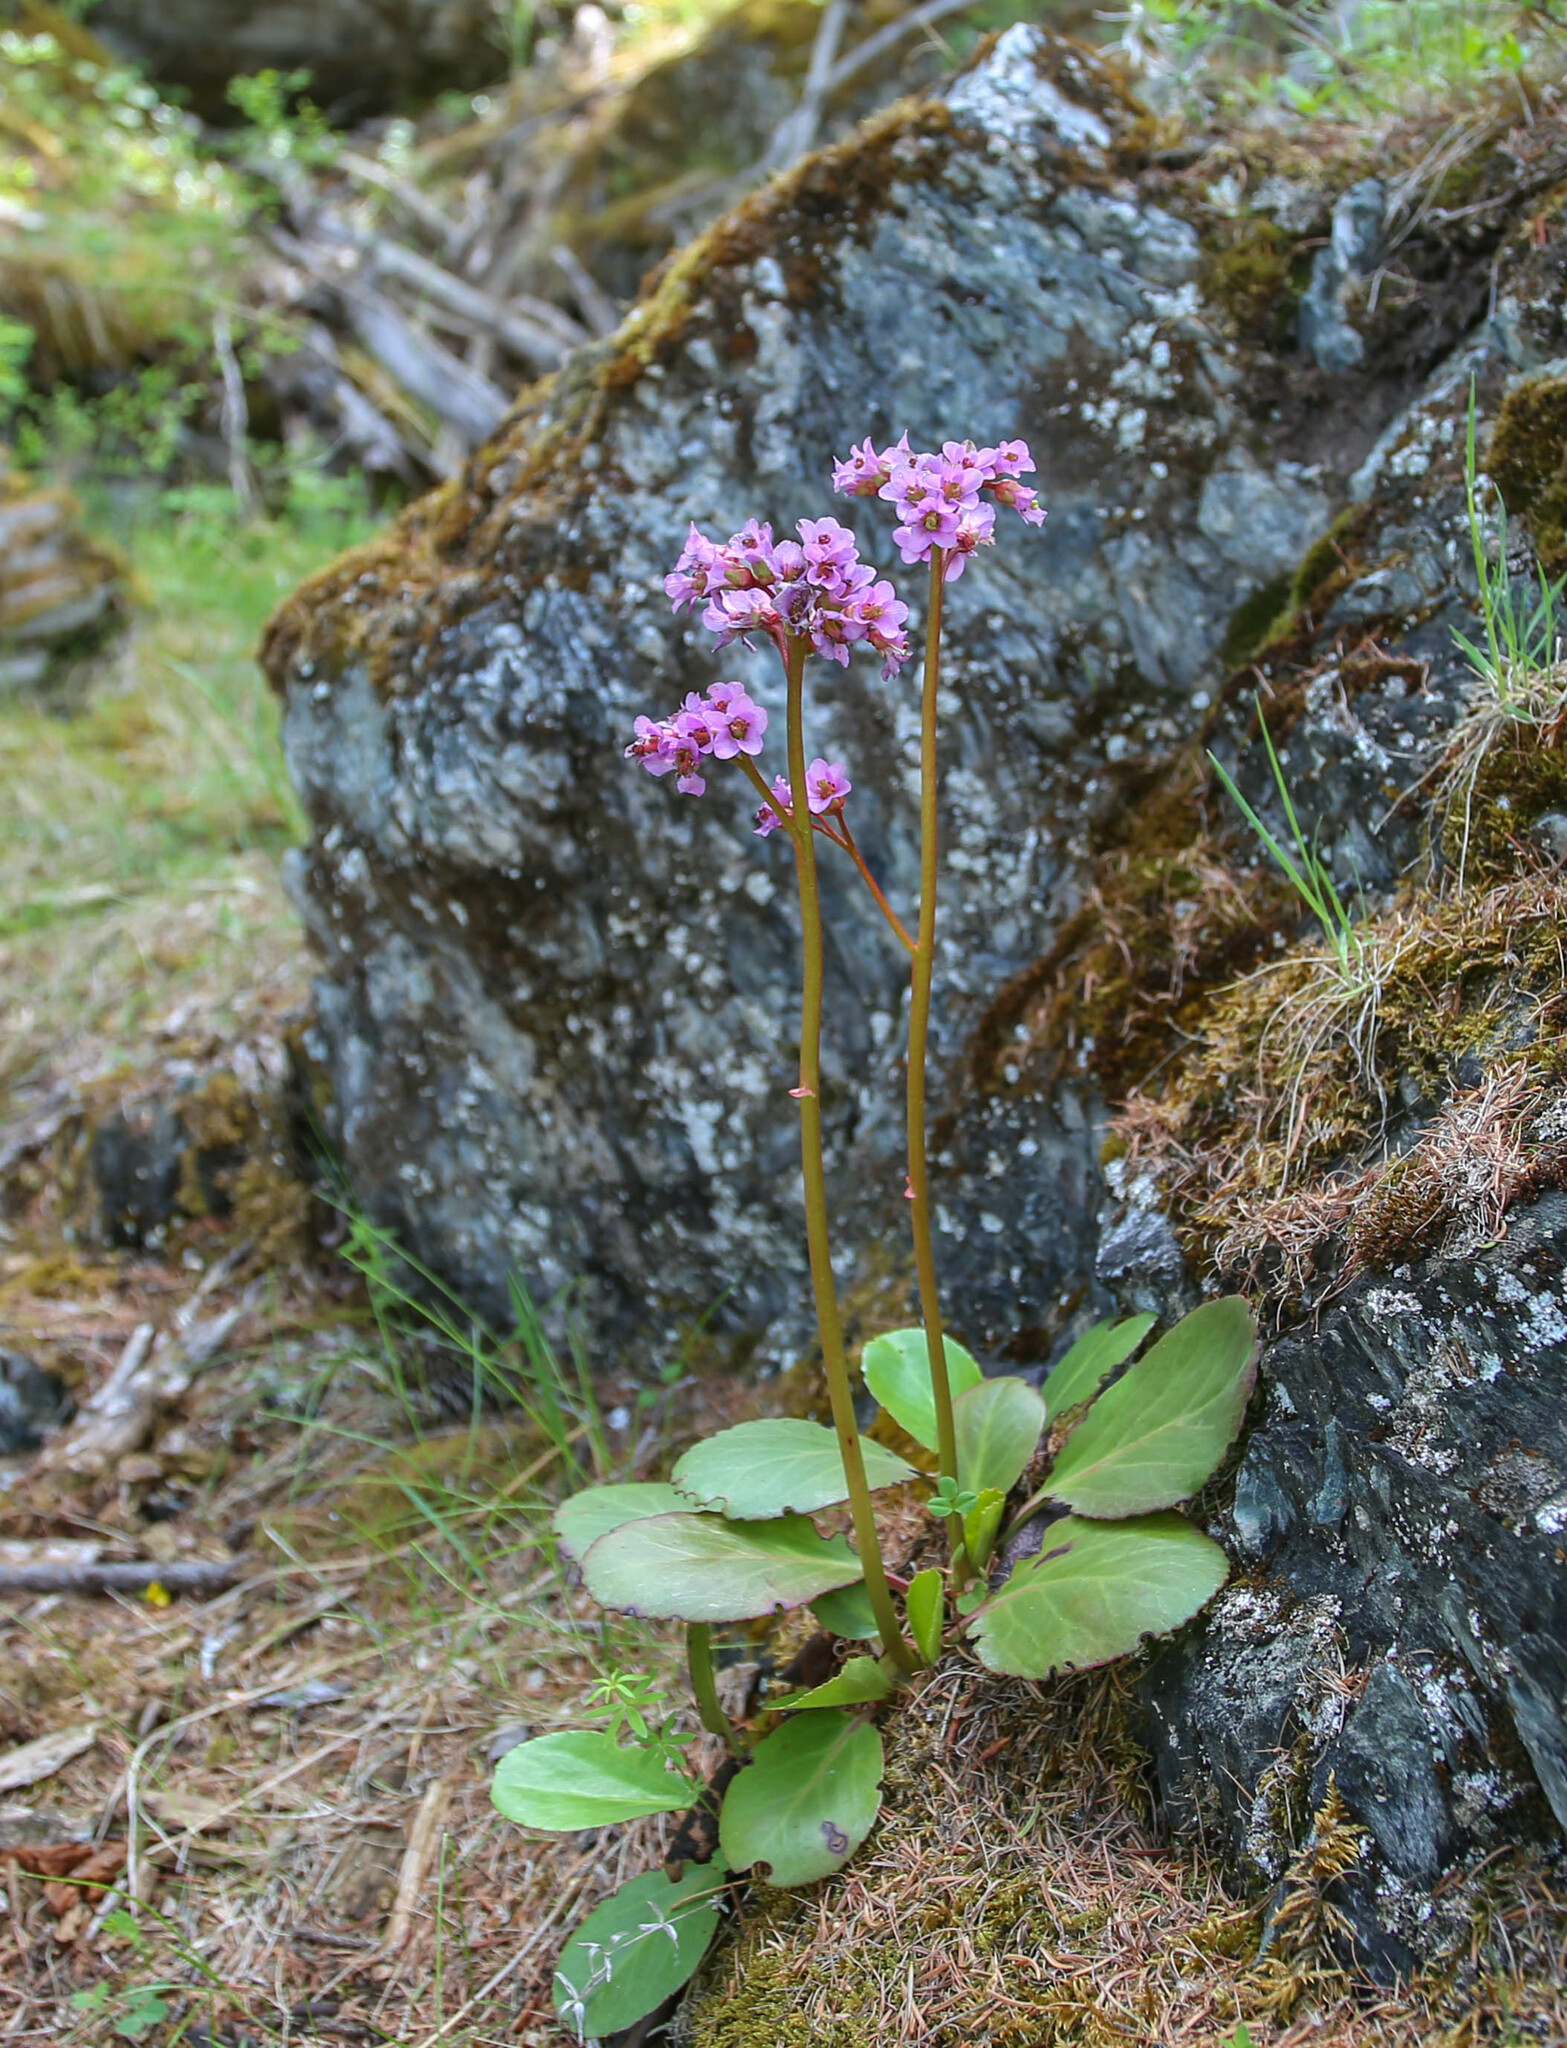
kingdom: Plantae
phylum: Tracheophyta
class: Magnoliopsida
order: Saxifragales
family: Saxifragaceae
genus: Bergenia
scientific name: Bergenia crassifolia
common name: Elephant-ears
